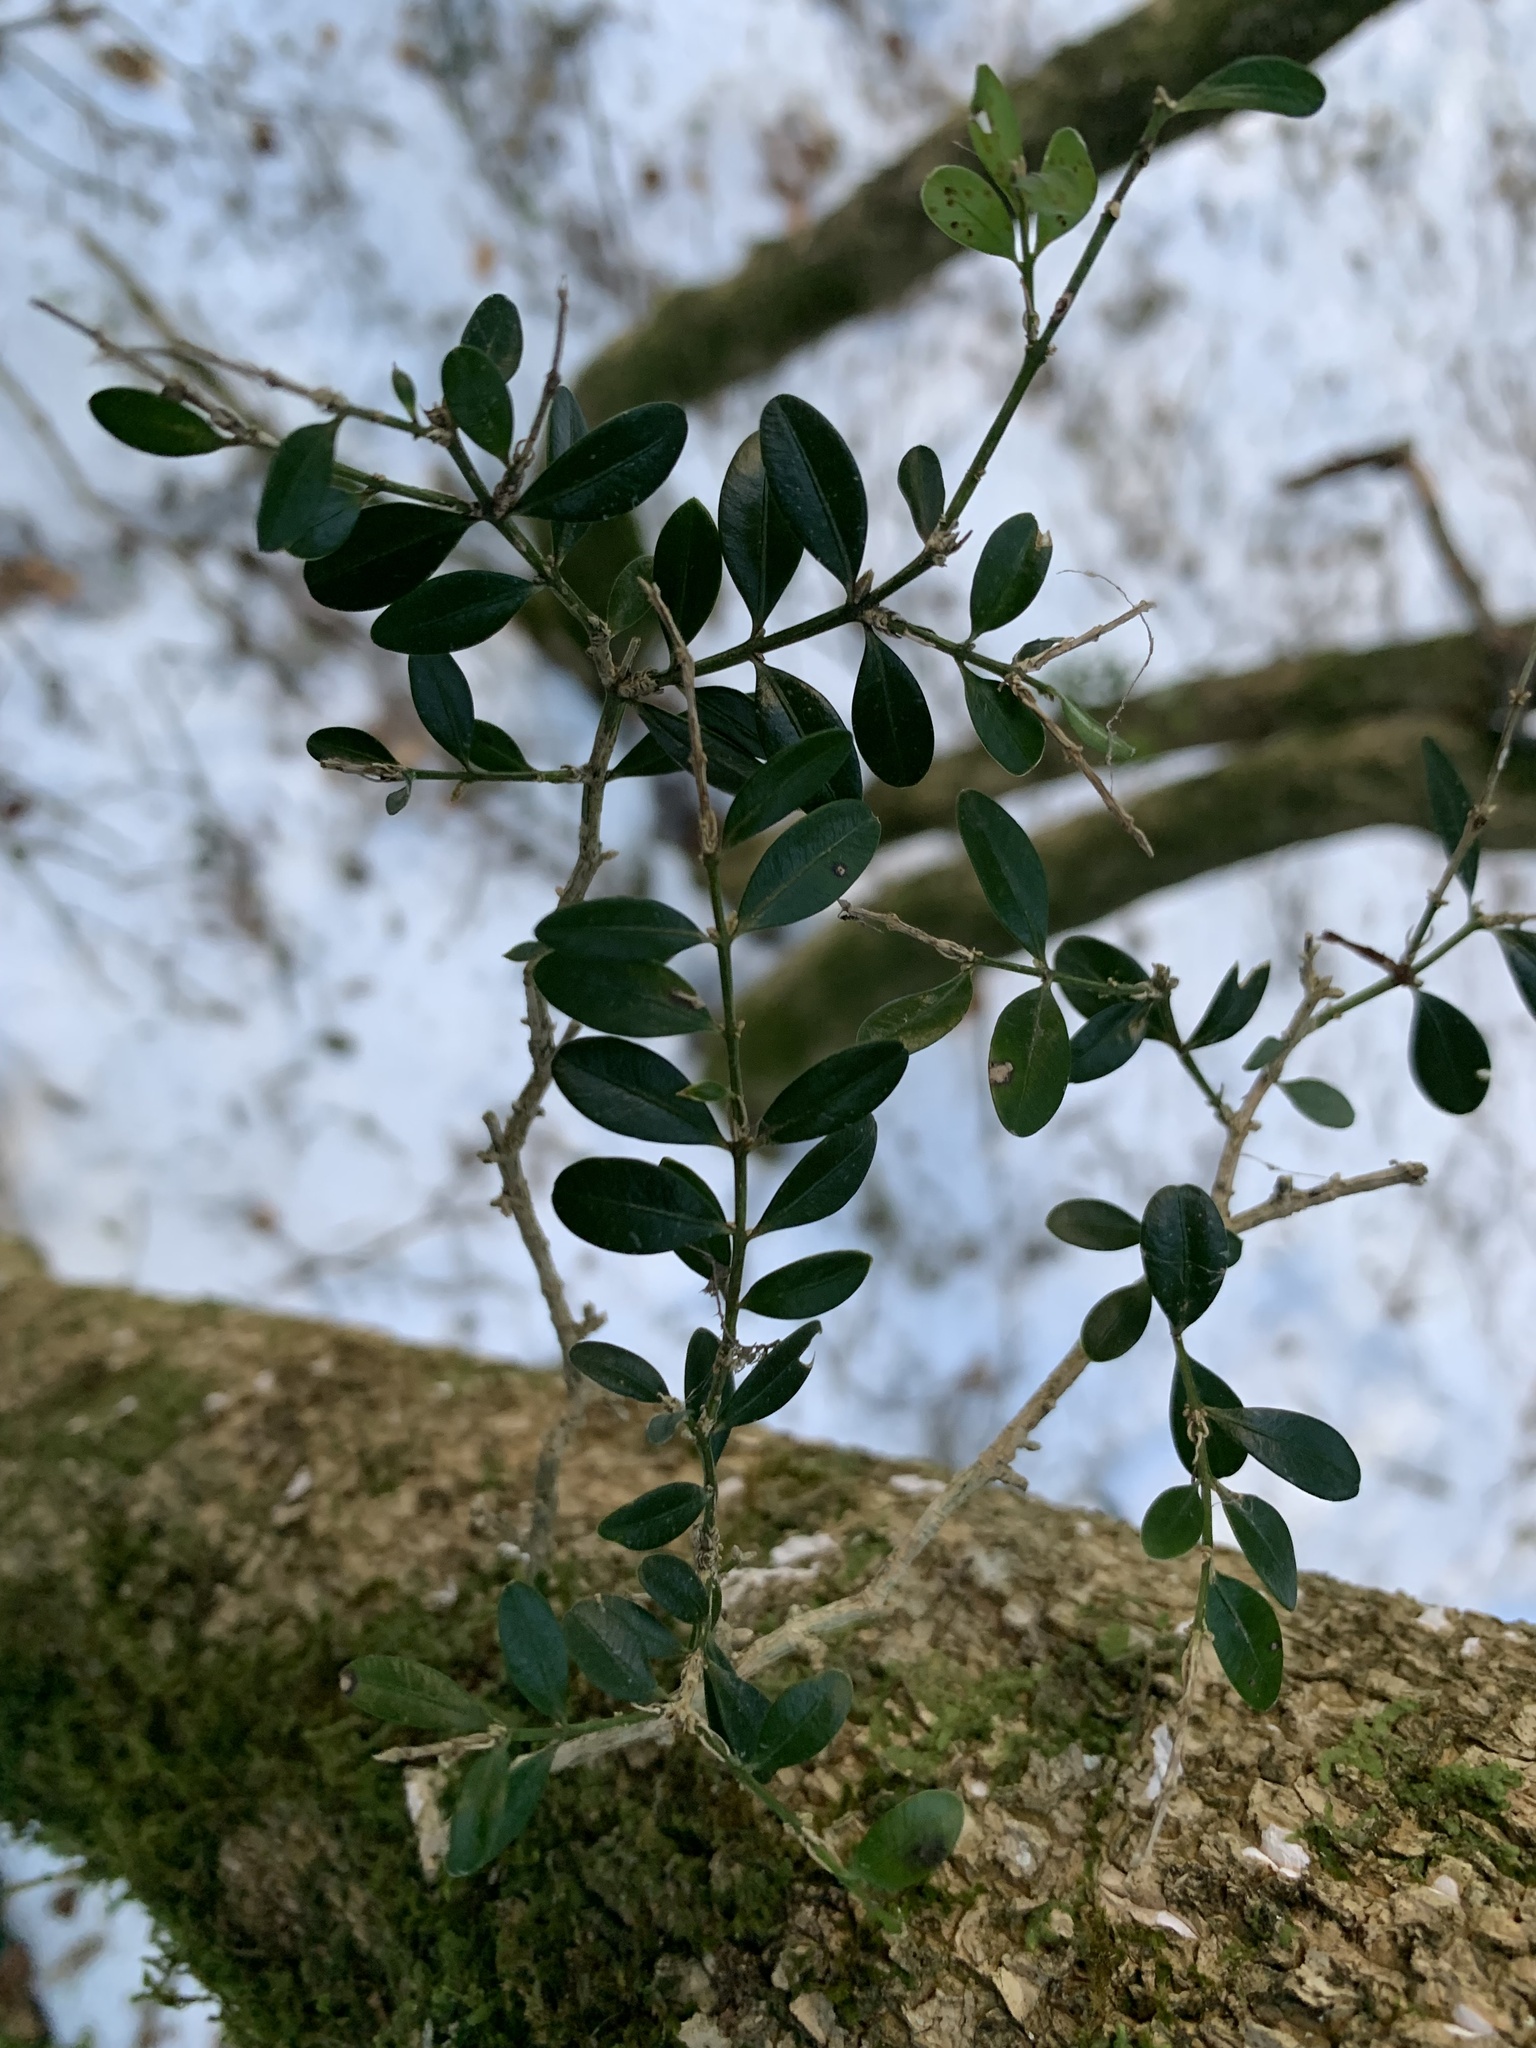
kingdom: Plantae
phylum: Tracheophyta
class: Magnoliopsida
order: Buxales
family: Buxaceae
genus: Buxus
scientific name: Buxus sempervirens
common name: Box
